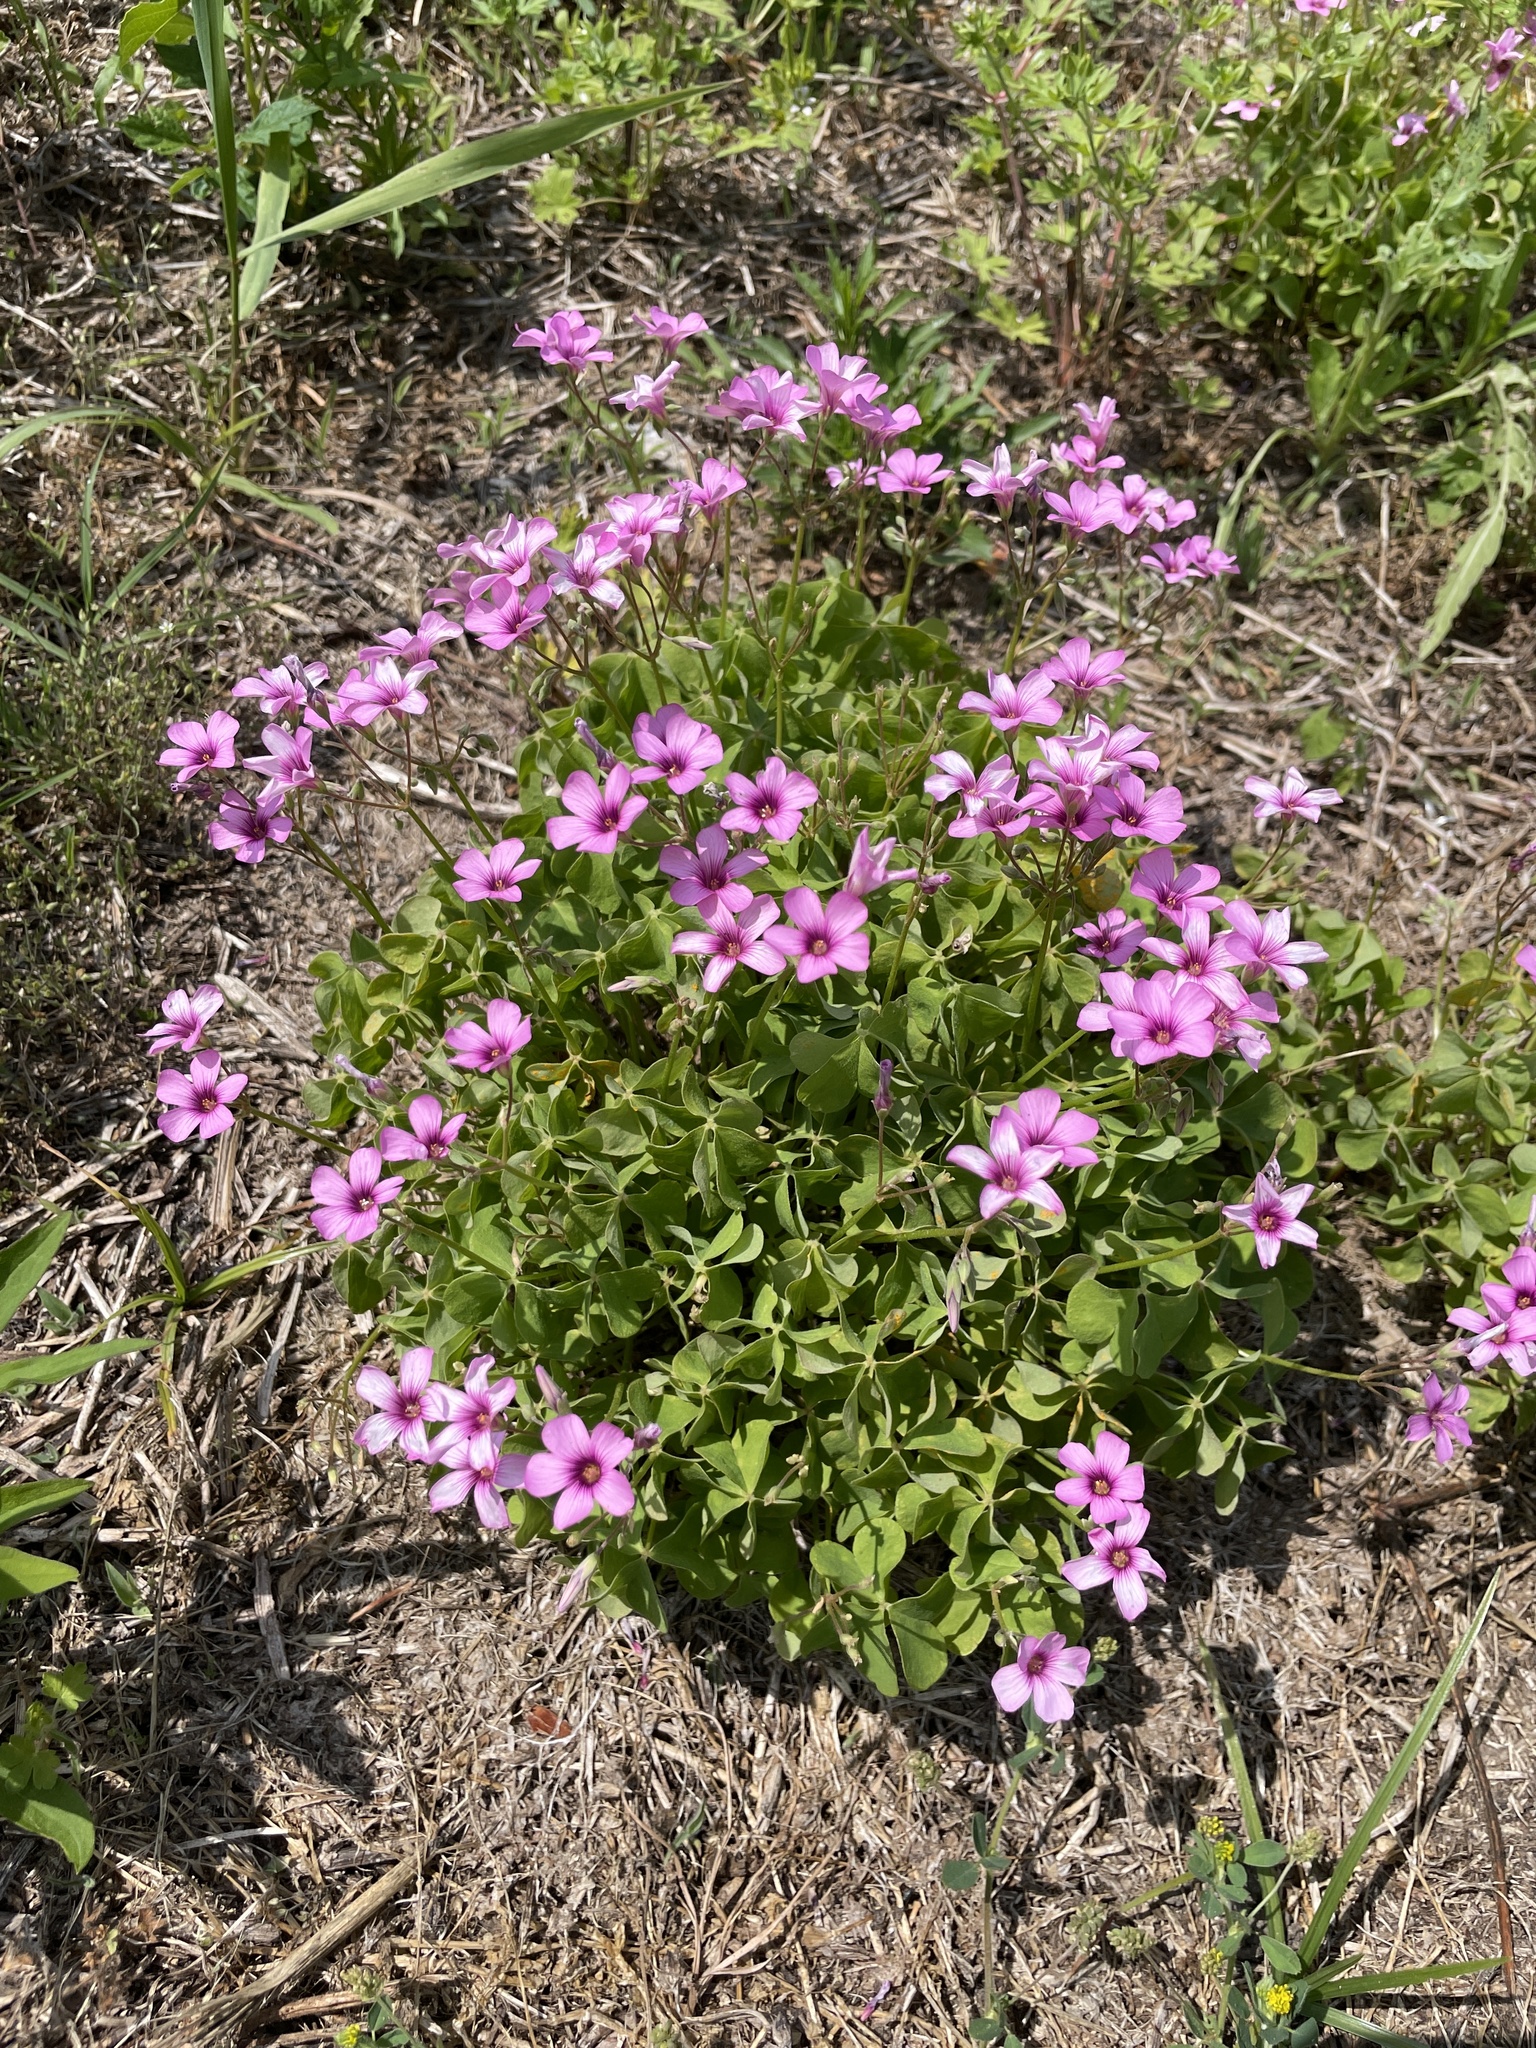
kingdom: Plantae
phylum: Tracheophyta
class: Magnoliopsida
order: Oxalidales
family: Oxalidaceae
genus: Oxalis
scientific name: Oxalis articulata
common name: Pink-sorrel
